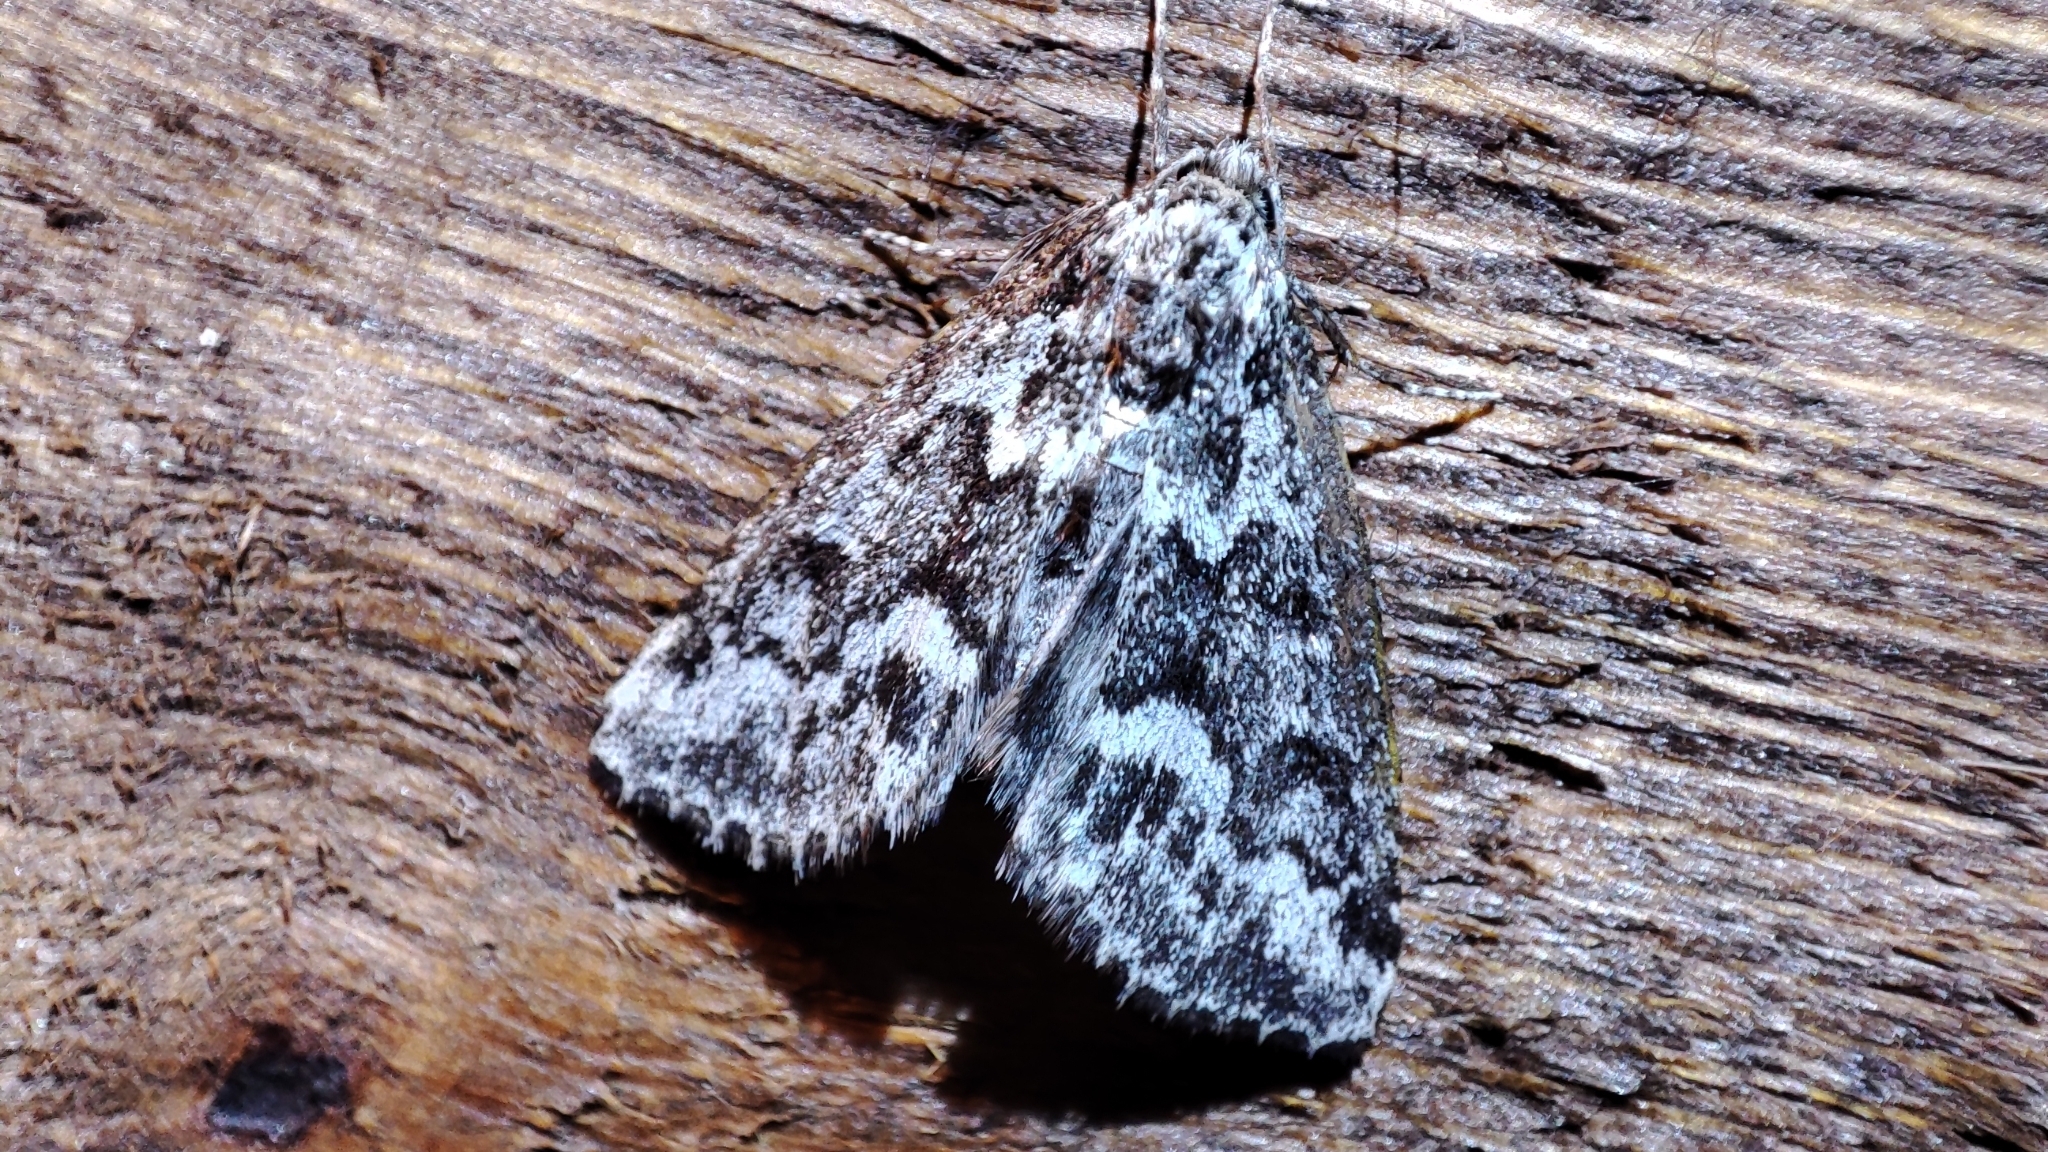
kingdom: Animalia
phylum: Arthropoda
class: Insecta
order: Lepidoptera
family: Noctuidae
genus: Victrix
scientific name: Victrix umovii
